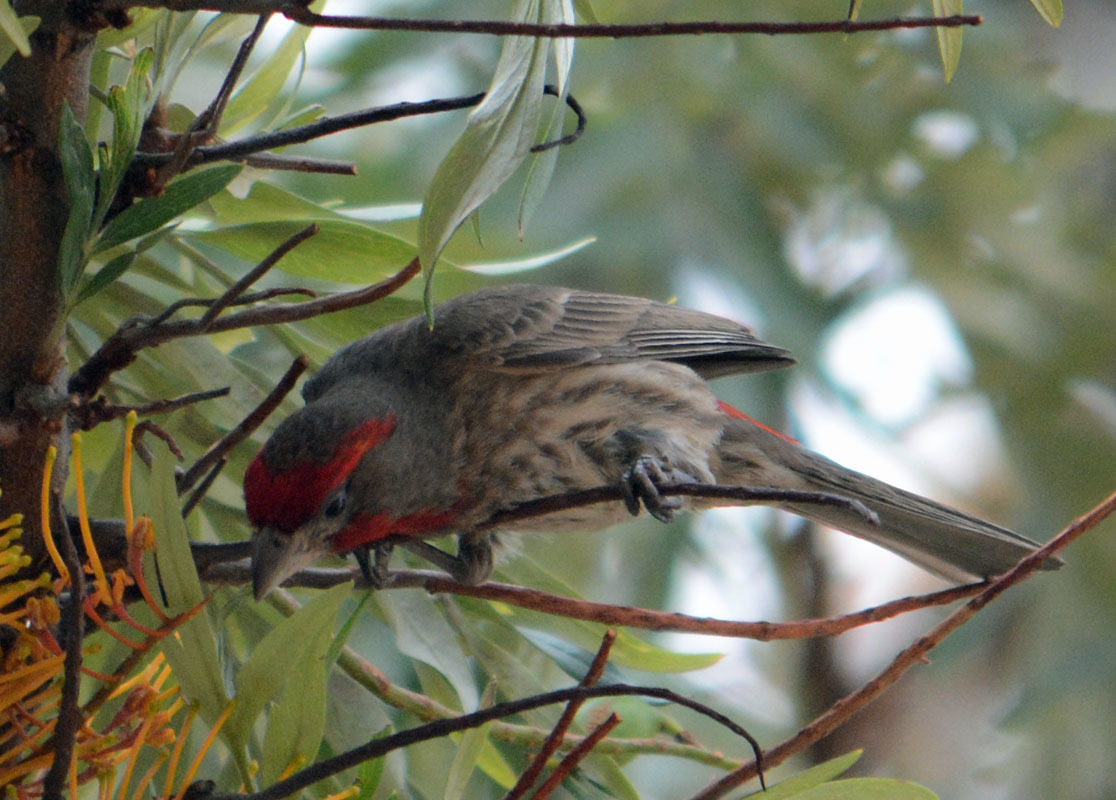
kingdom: Animalia
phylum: Chordata
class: Aves
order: Passeriformes
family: Fringillidae
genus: Haemorhous
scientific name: Haemorhous mexicanus
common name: House finch
